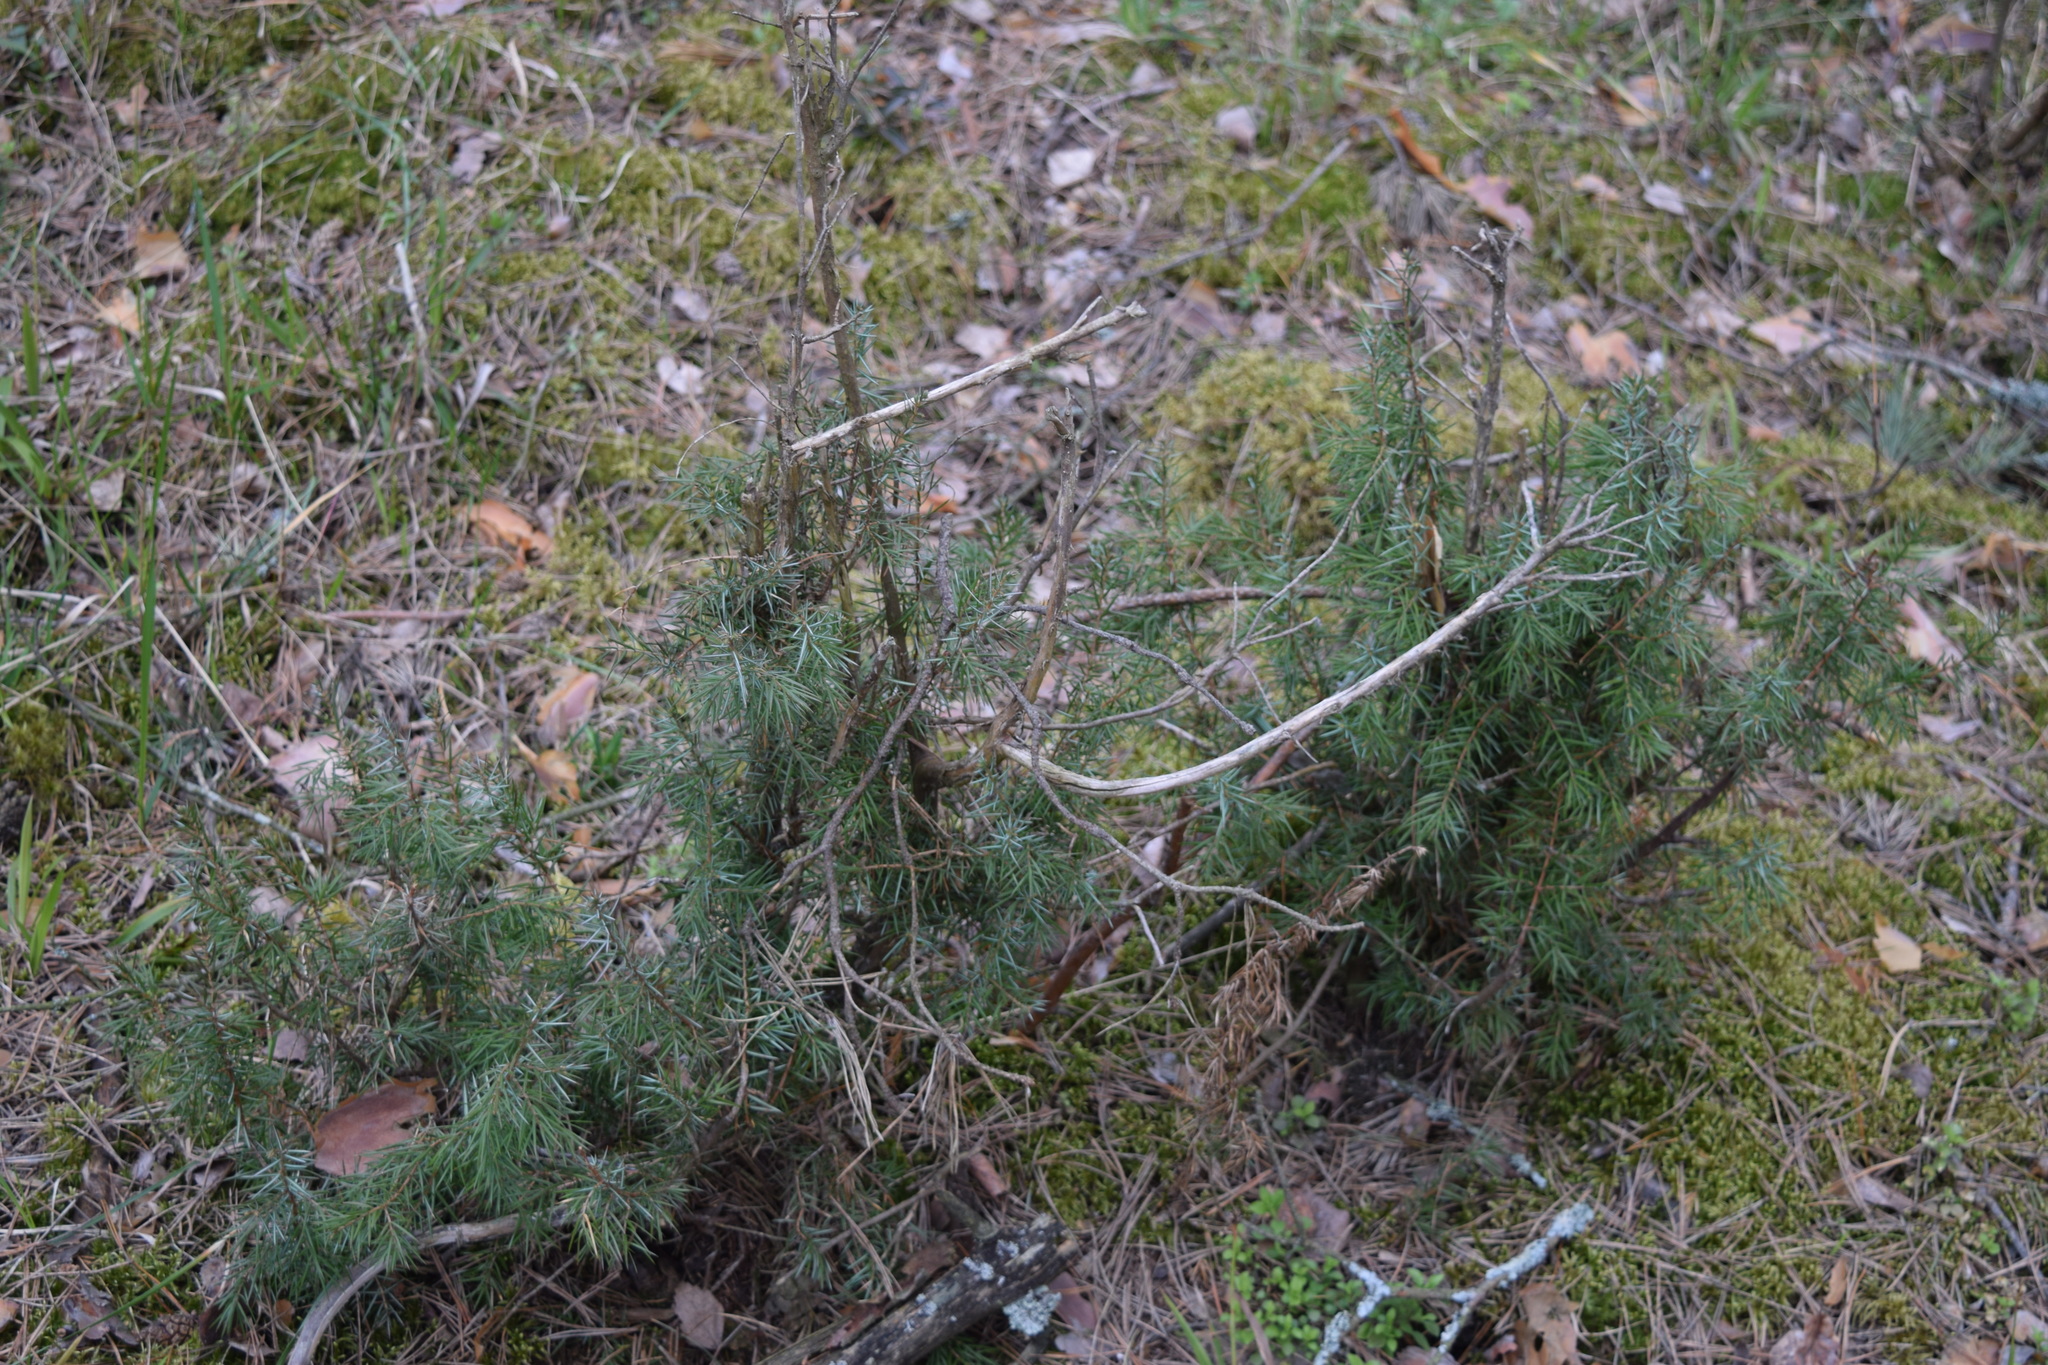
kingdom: Plantae
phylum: Tracheophyta
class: Pinopsida
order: Pinales
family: Cupressaceae
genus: Juniperus
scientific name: Juniperus communis
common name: Common juniper
